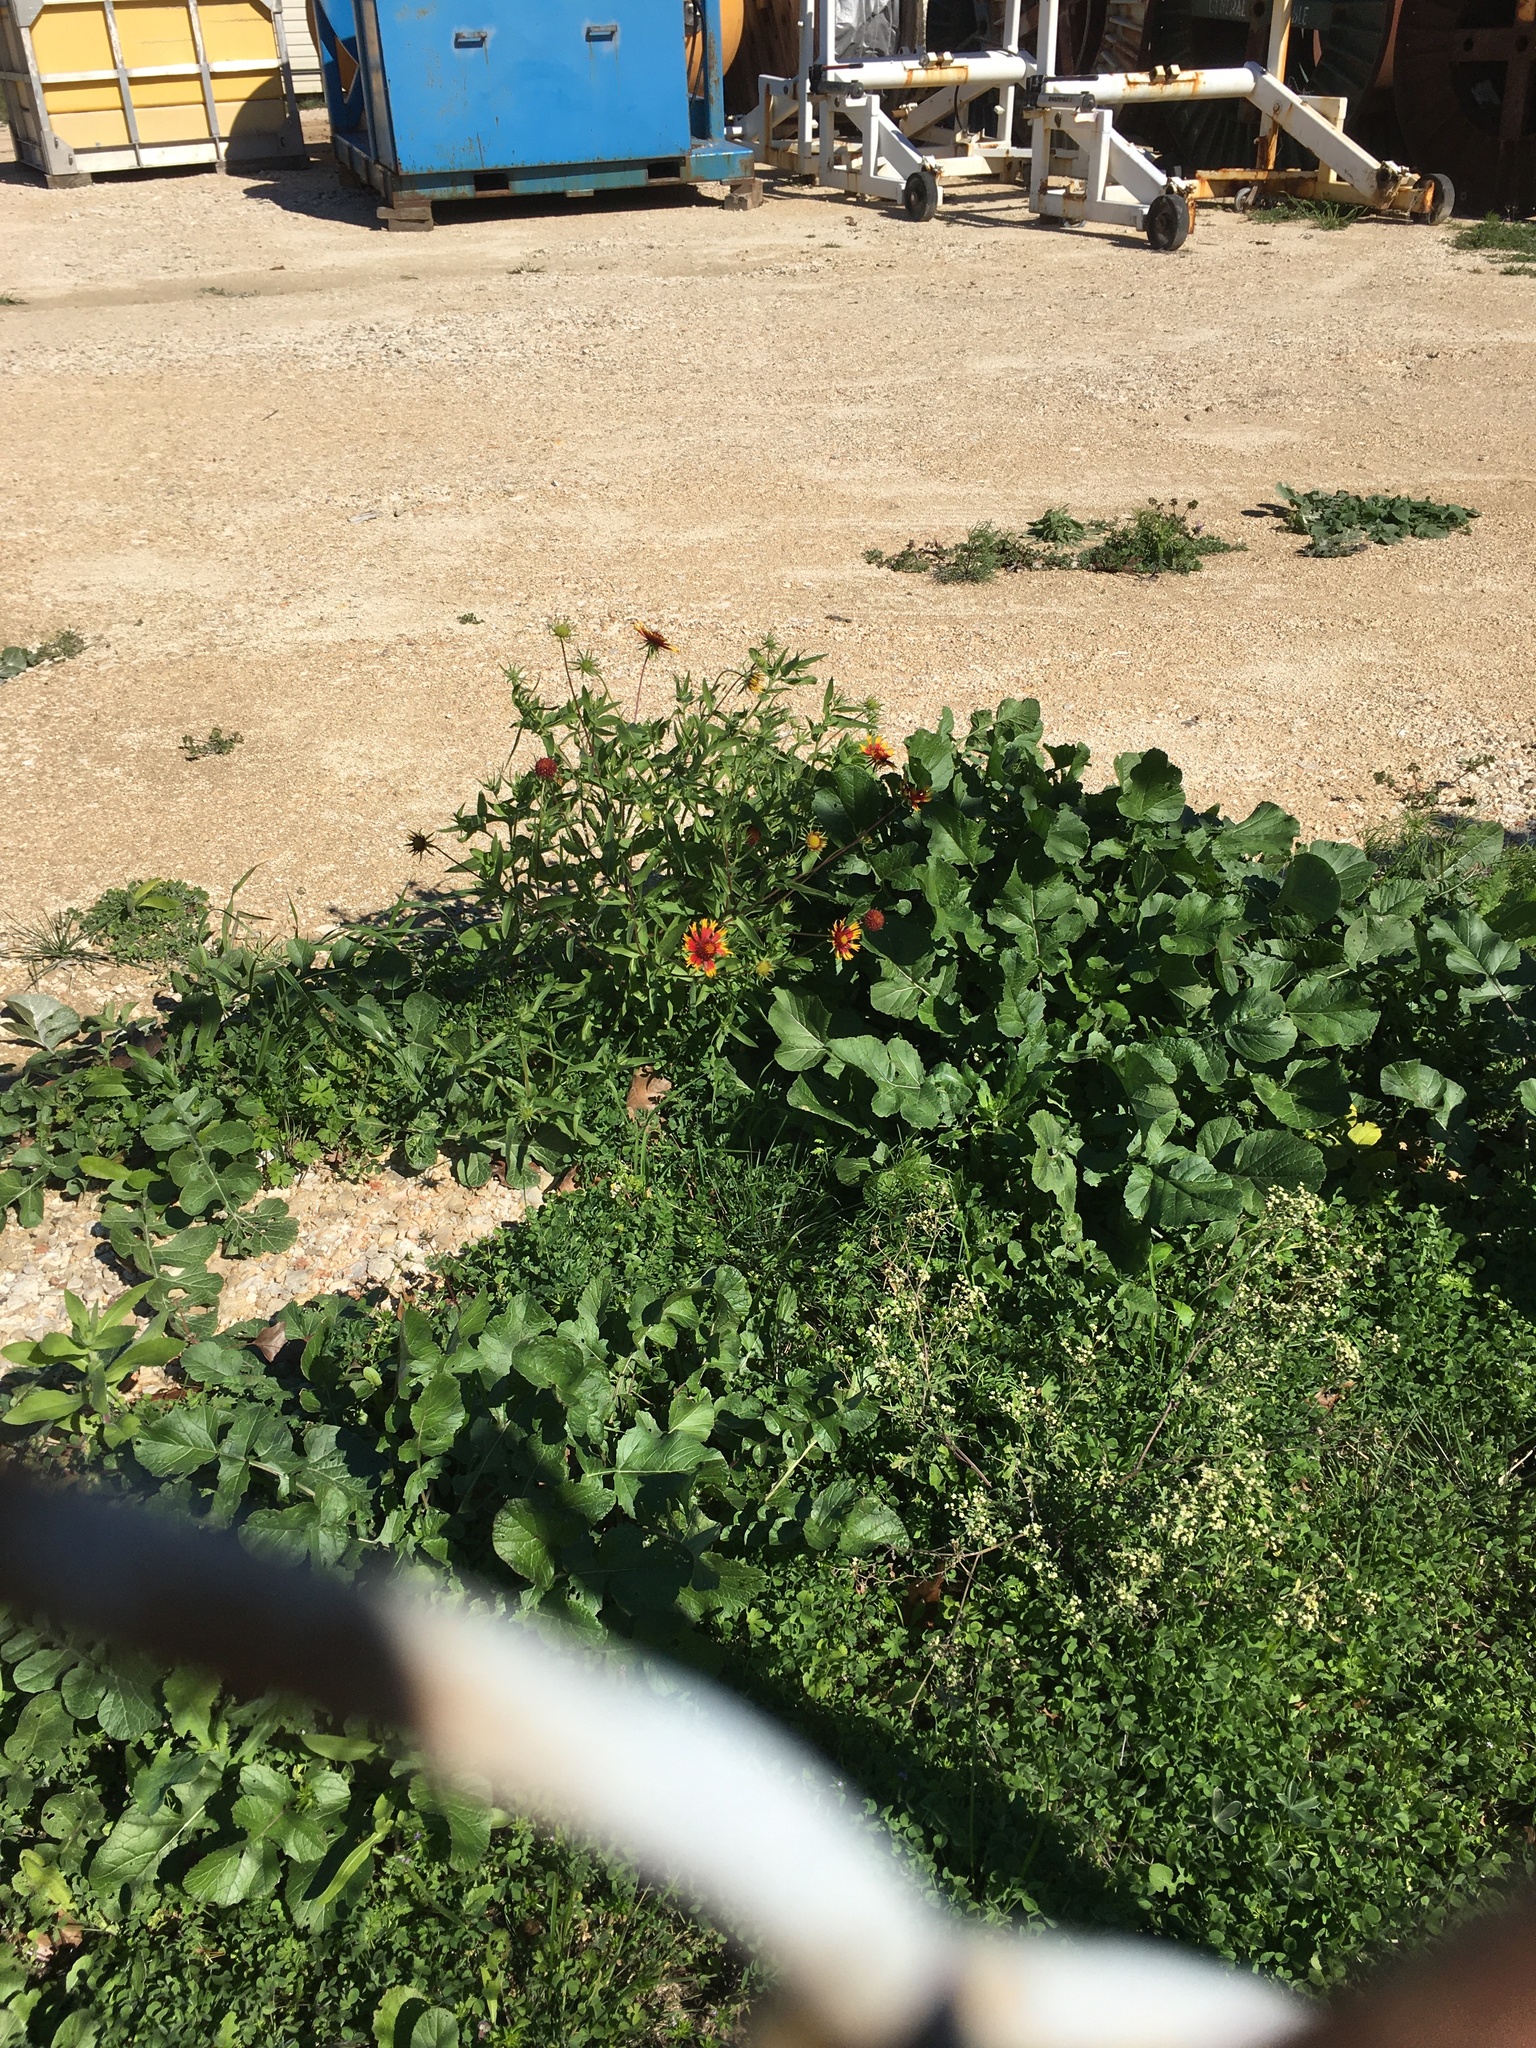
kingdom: Plantae
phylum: Tracheophyta
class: Magnoliopsida
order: Asterales
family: Asteraceae
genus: Gaillardia
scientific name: Gaillardia pulchella
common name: Firewheel
